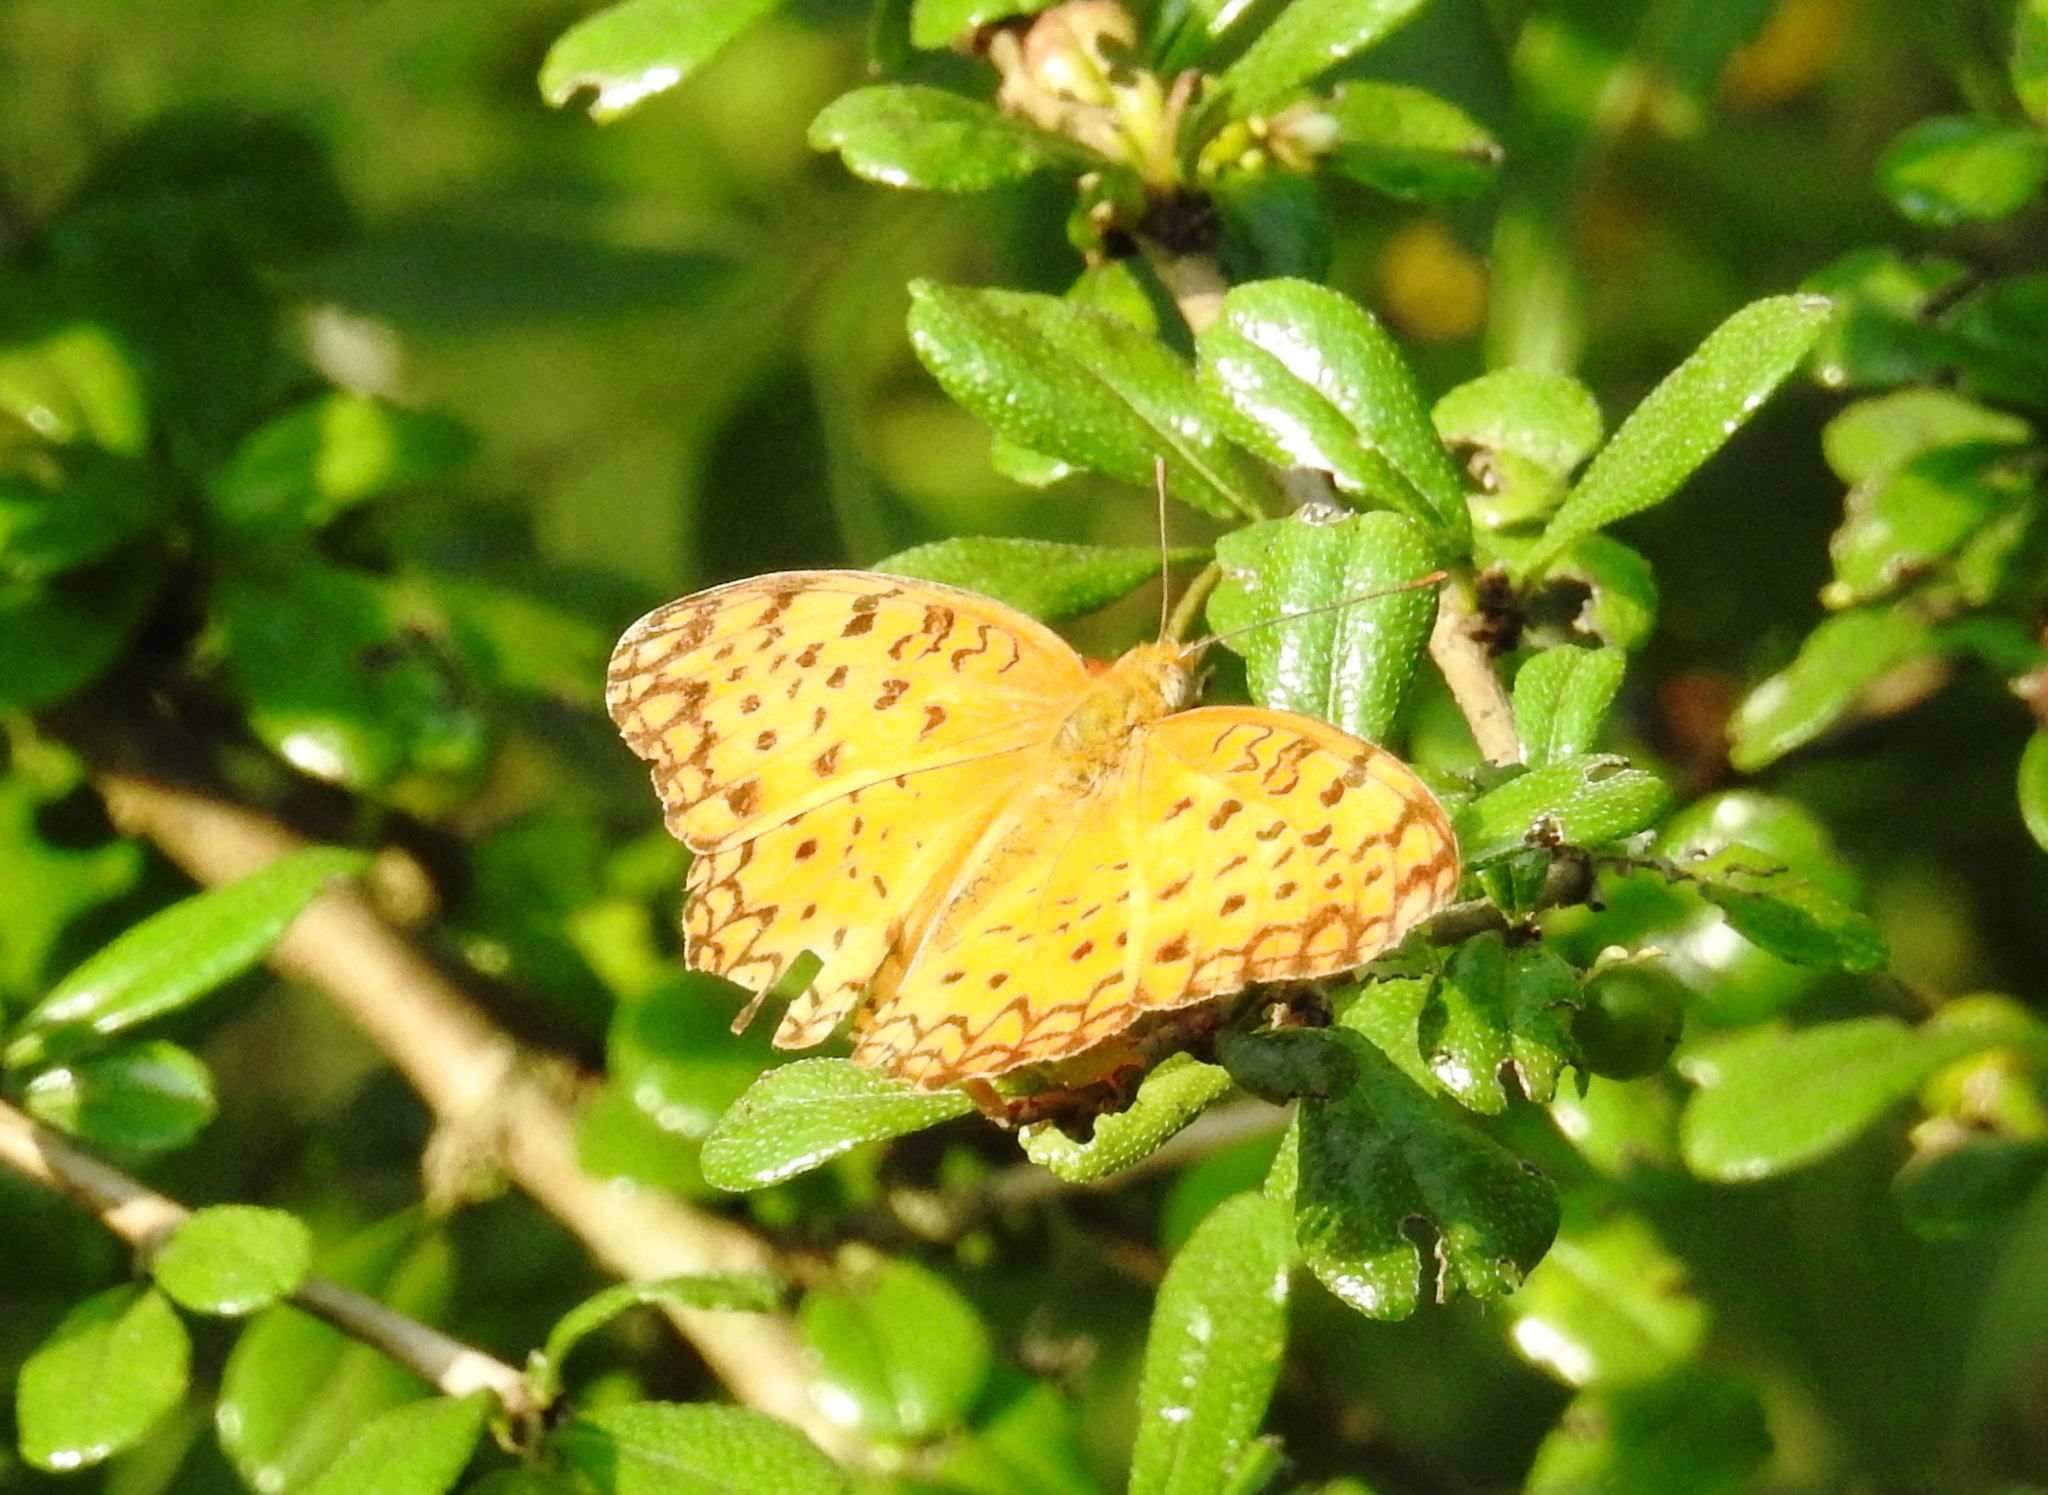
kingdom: Animalia
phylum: Arthropoda
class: Insecta
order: Lepidoptera
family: Nymphalidae
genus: Phalanta
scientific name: Phalanta phalantha
